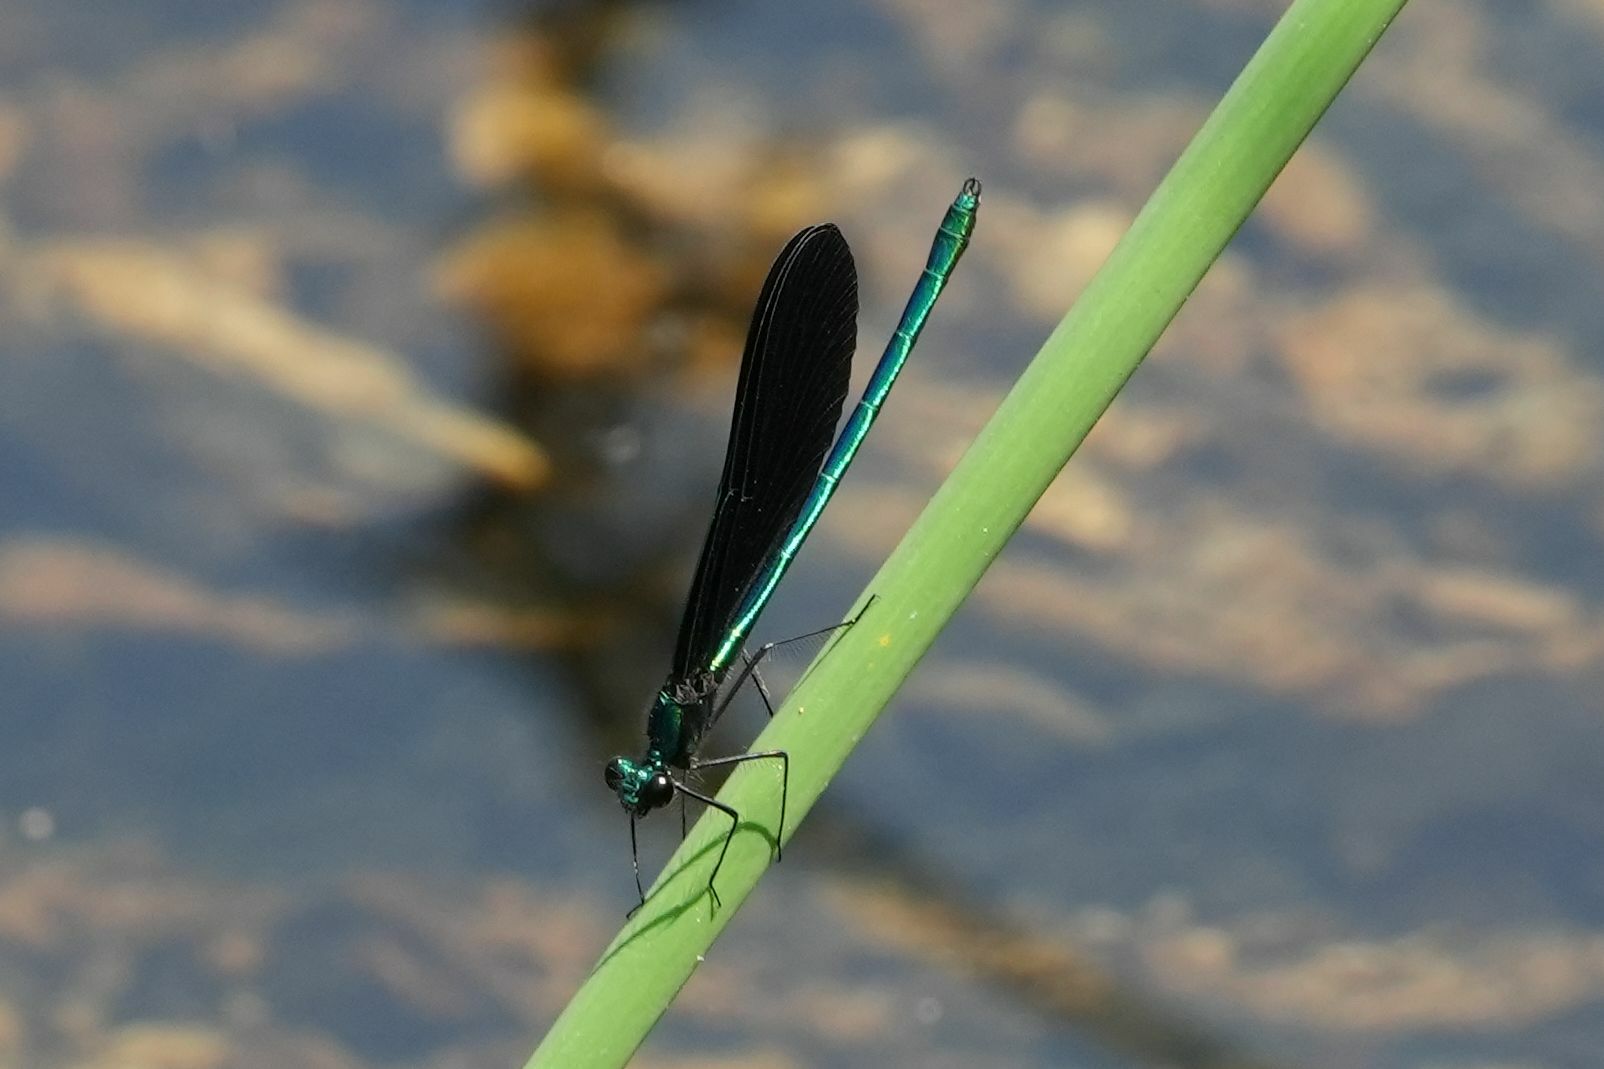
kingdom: Animalia
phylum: Arthropoda
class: Insecta
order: Odonata
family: Calopterygidae
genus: Calopteryx
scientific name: Calopteryx maculata
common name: Ebony jewelwing
